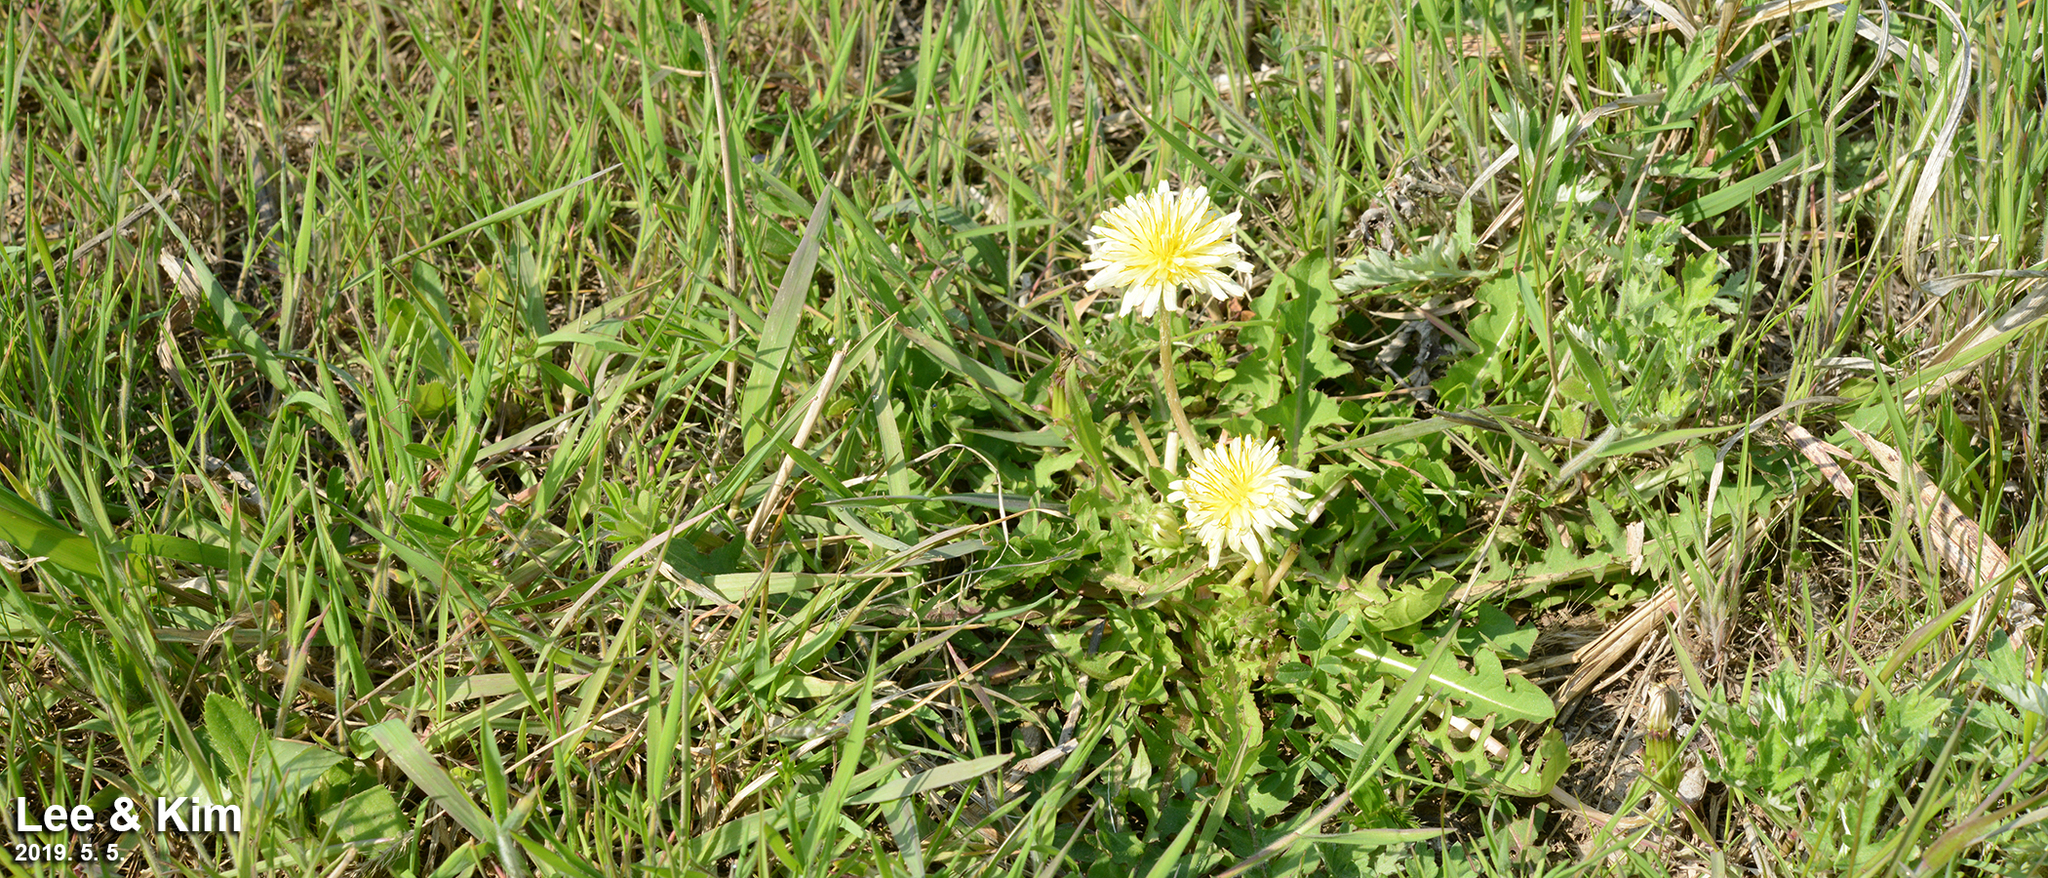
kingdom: Plantae
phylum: Tracheophyta
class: Magnoliopsida
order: Asterales
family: Asteraceae
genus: Taraxacum
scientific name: Taraxacum coreanum
